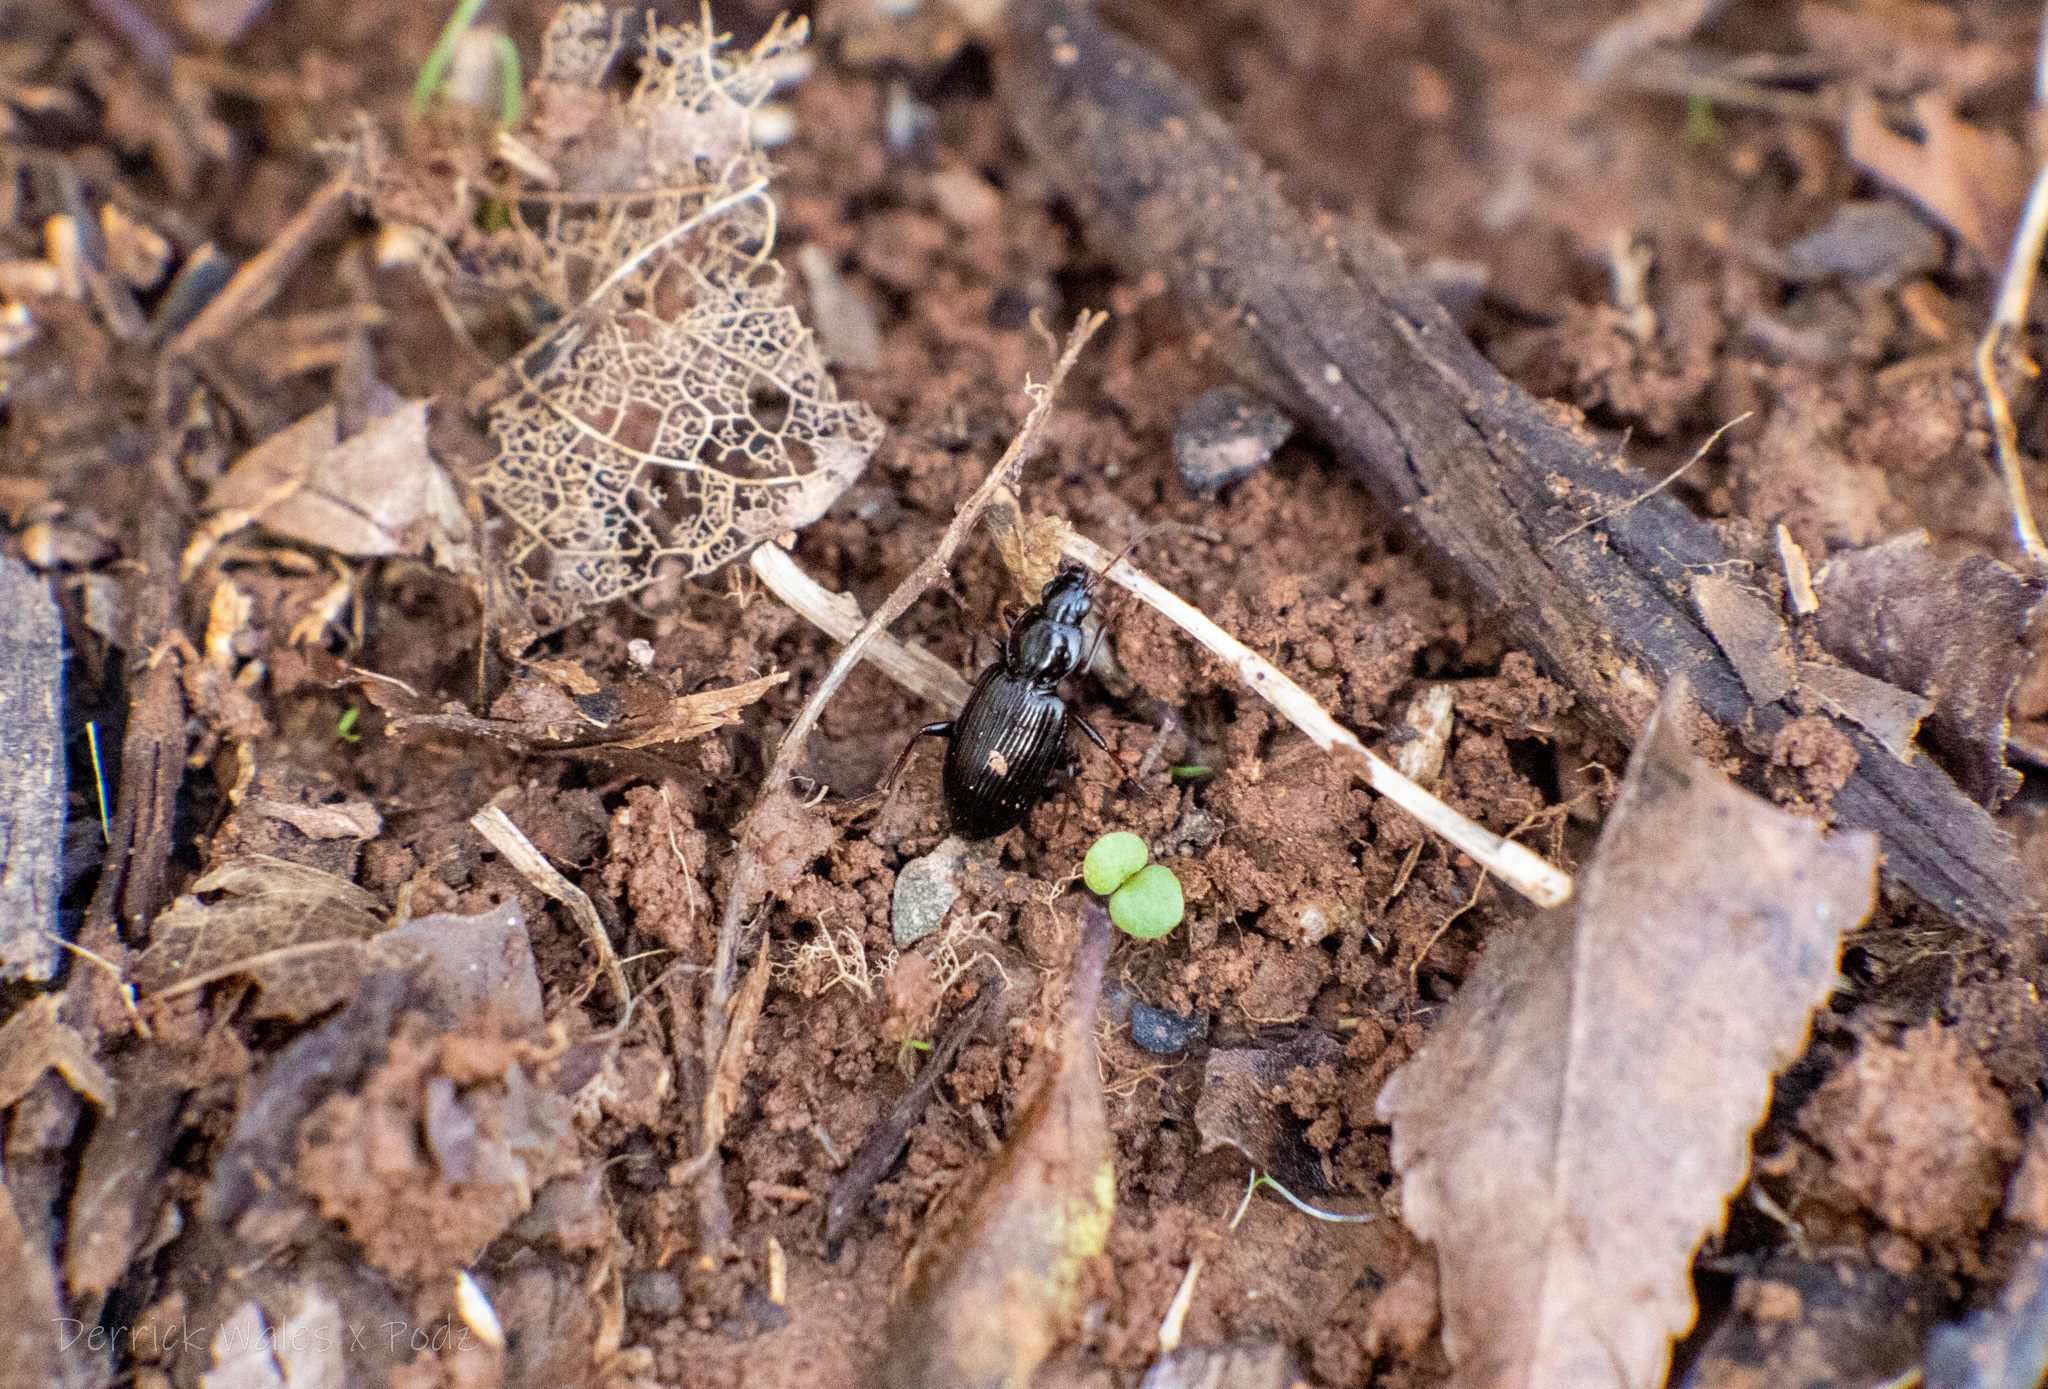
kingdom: Animalia
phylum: Arthropoda
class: Insecta
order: Coleoptera
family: Carabidae
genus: Agonum
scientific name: Agonum punctiforme
